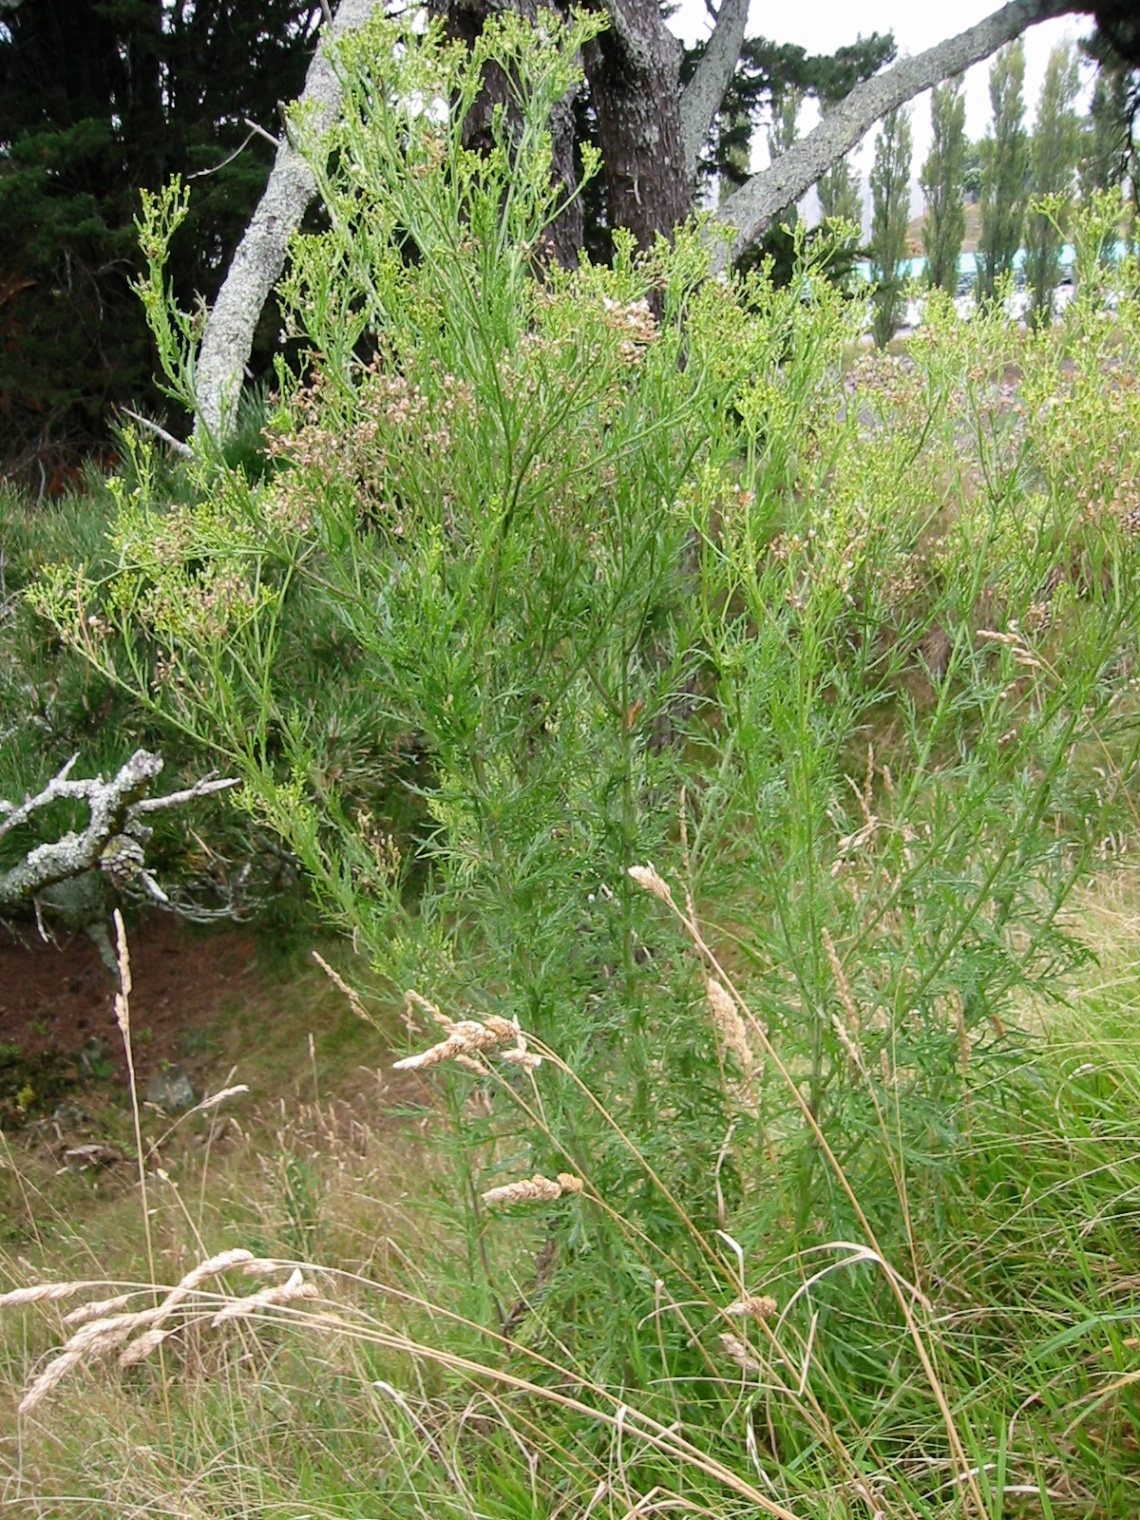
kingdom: Plantae
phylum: Tracheophyta
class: Magnoliopsida
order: Asterales
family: Asteraceae
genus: Senecio
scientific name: Senecio esleri
